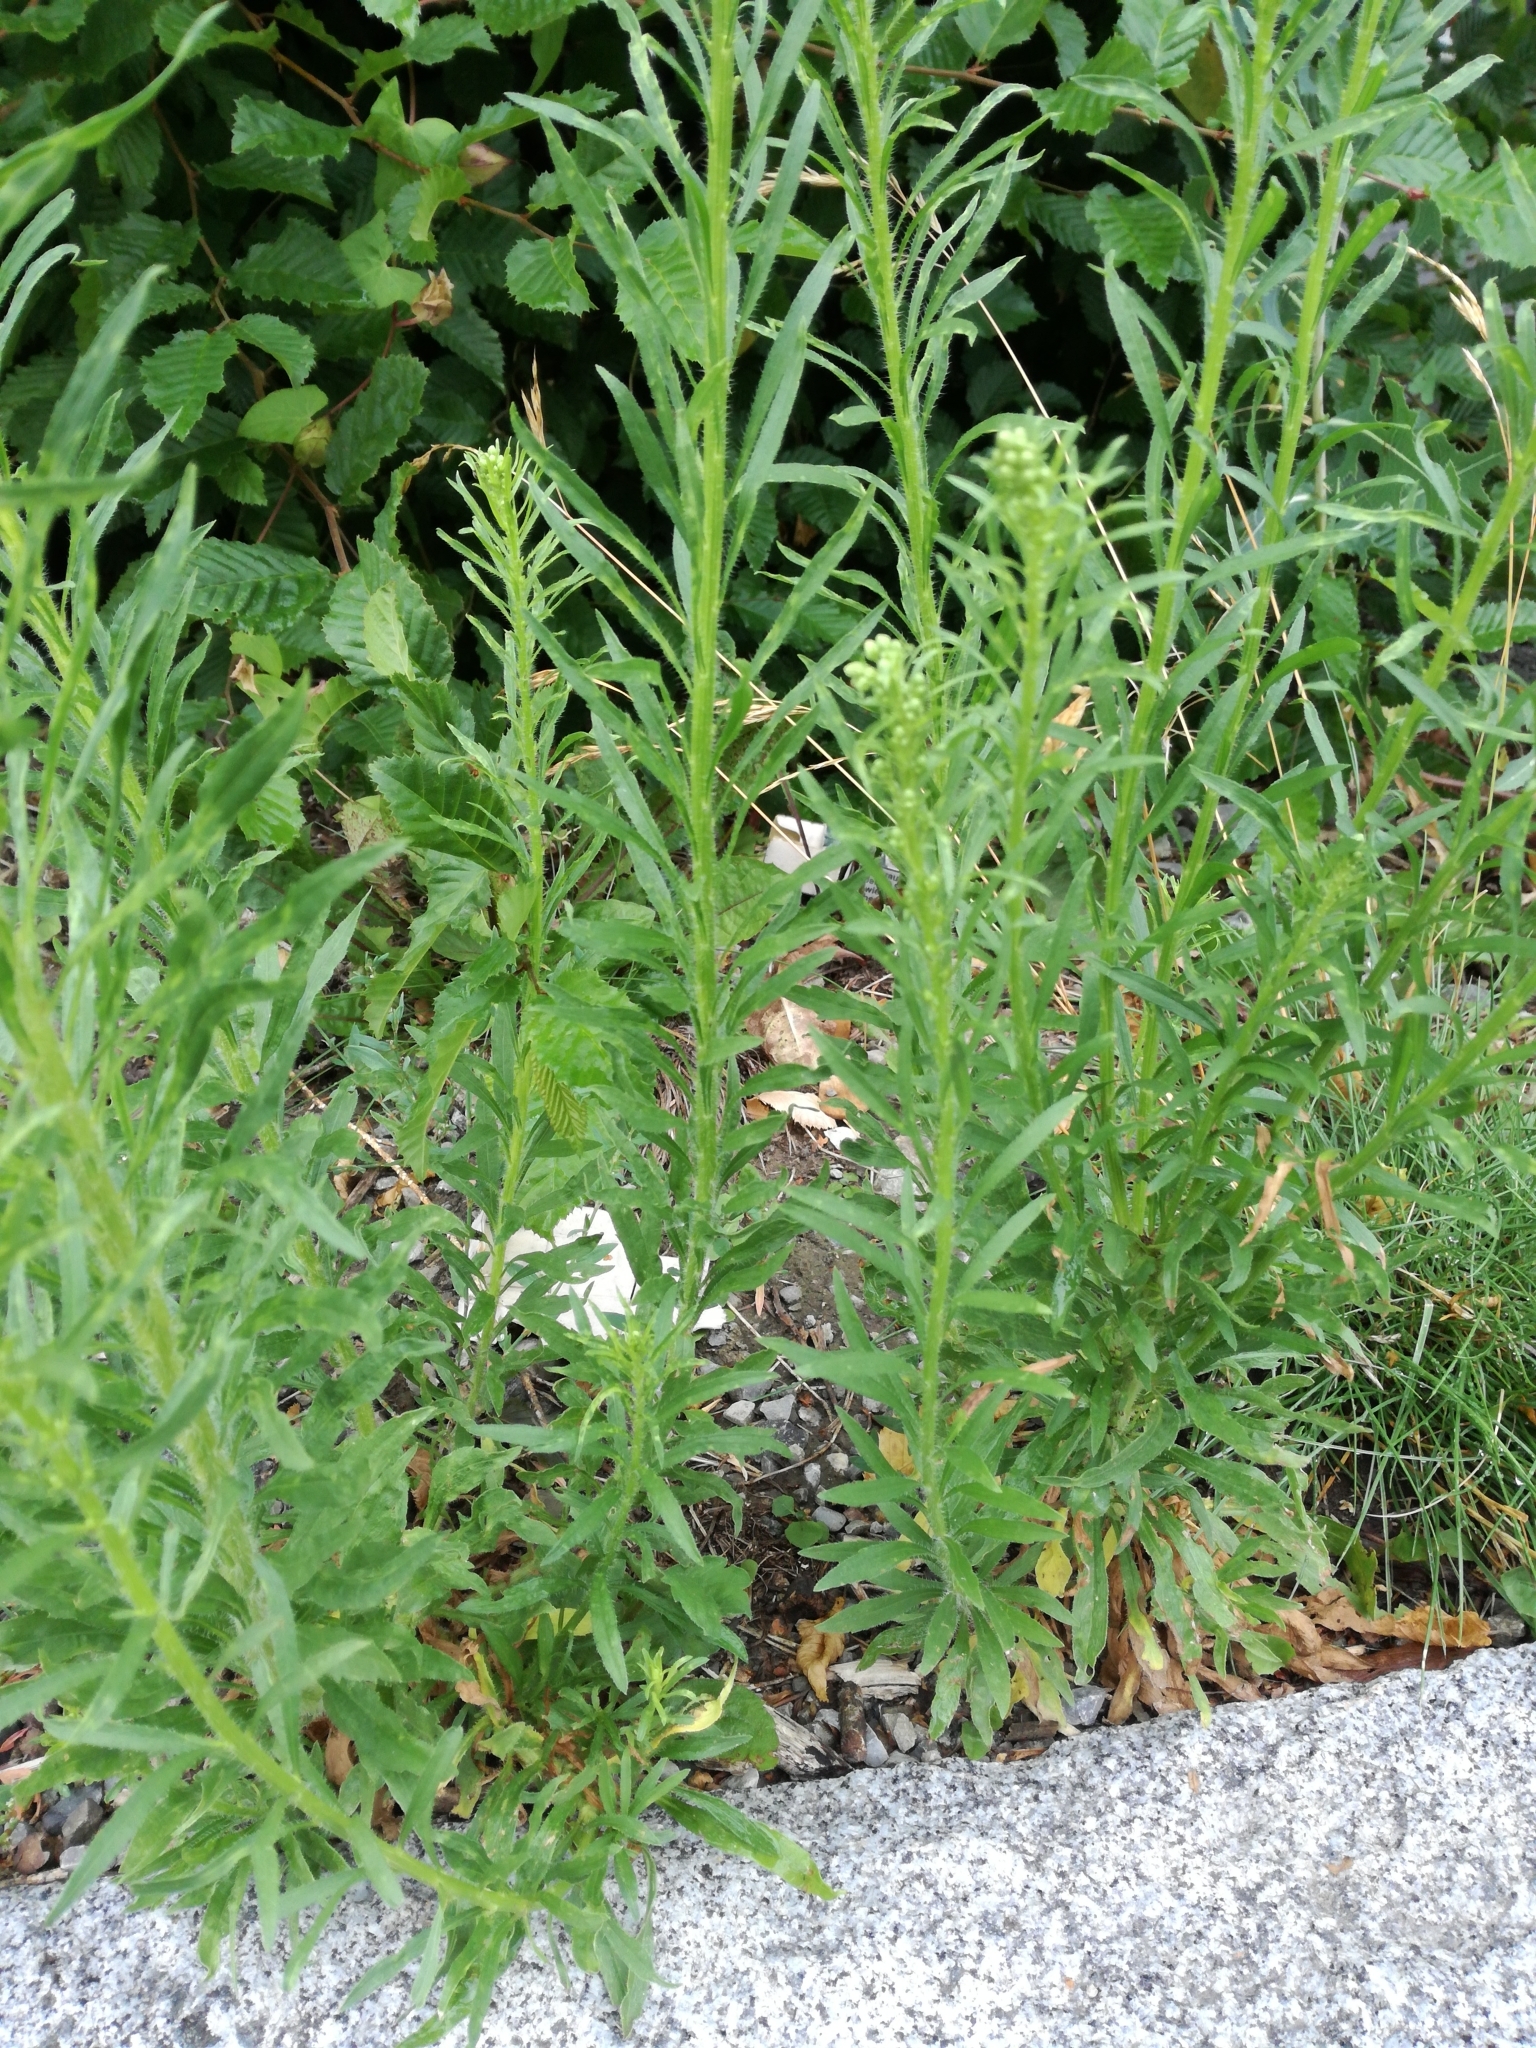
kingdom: Plantae
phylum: Tracheophyta
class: Magnoliopsida
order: Asterales
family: Asteraceae
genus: Erigeron
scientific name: Erigeron canadensis
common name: Canadian fleabane
